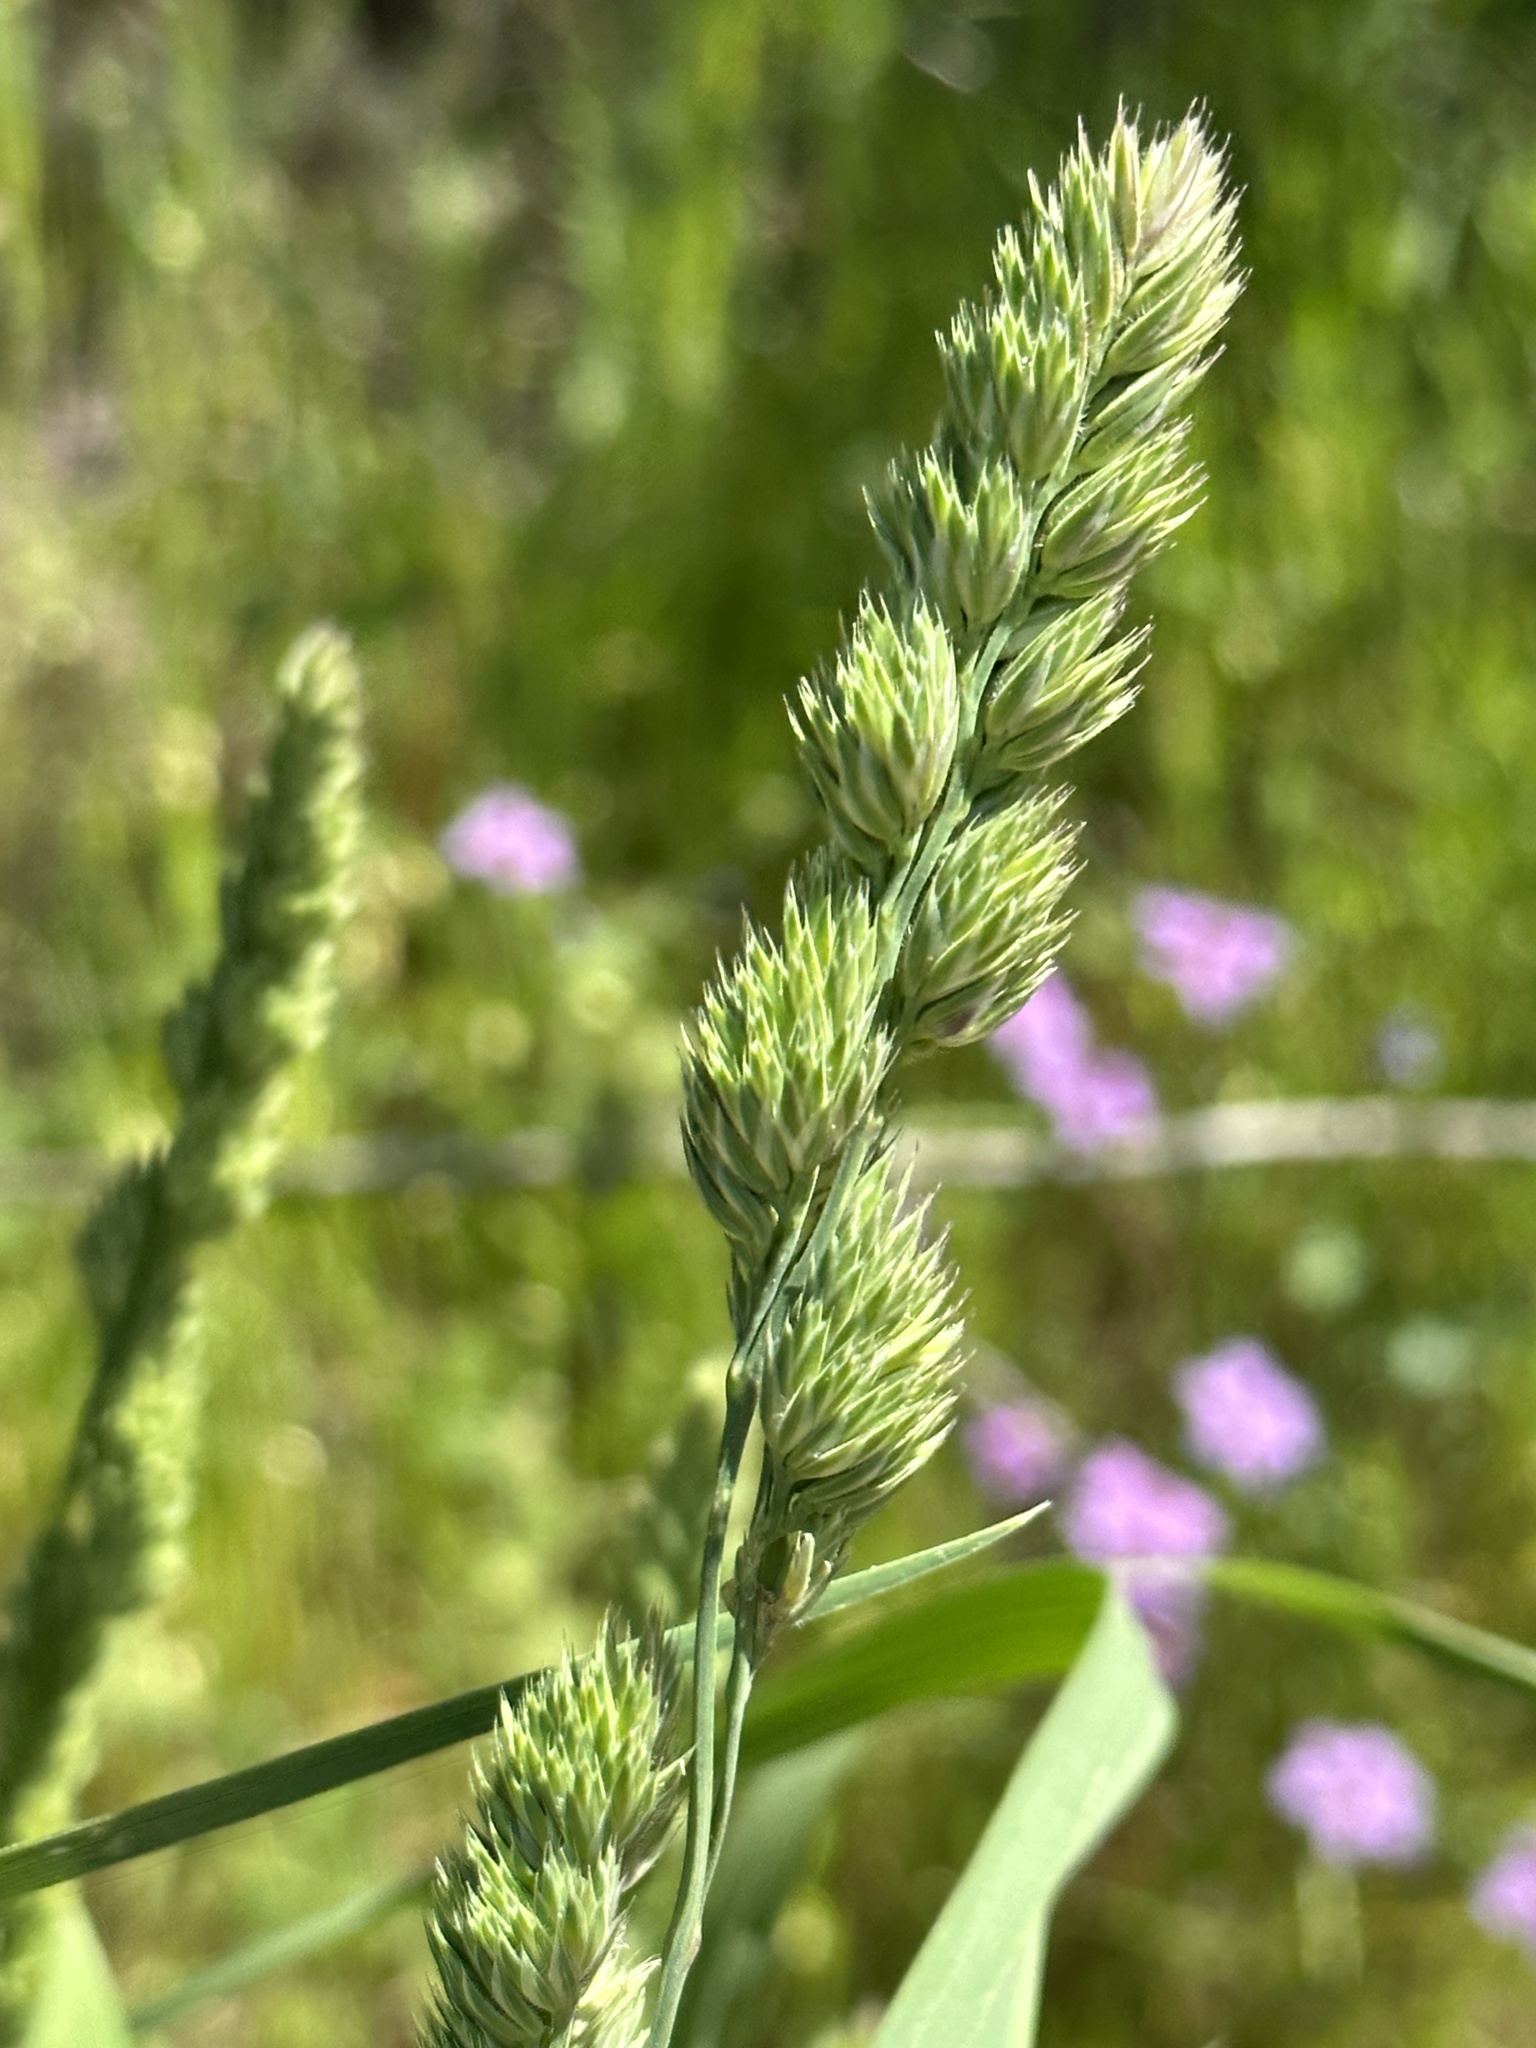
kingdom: Plantae
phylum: Tracheophyta
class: Liliopsida
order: Poales
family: Poaceae
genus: Dactylis
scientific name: Dactylis glomerata
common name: Orchardgrass
